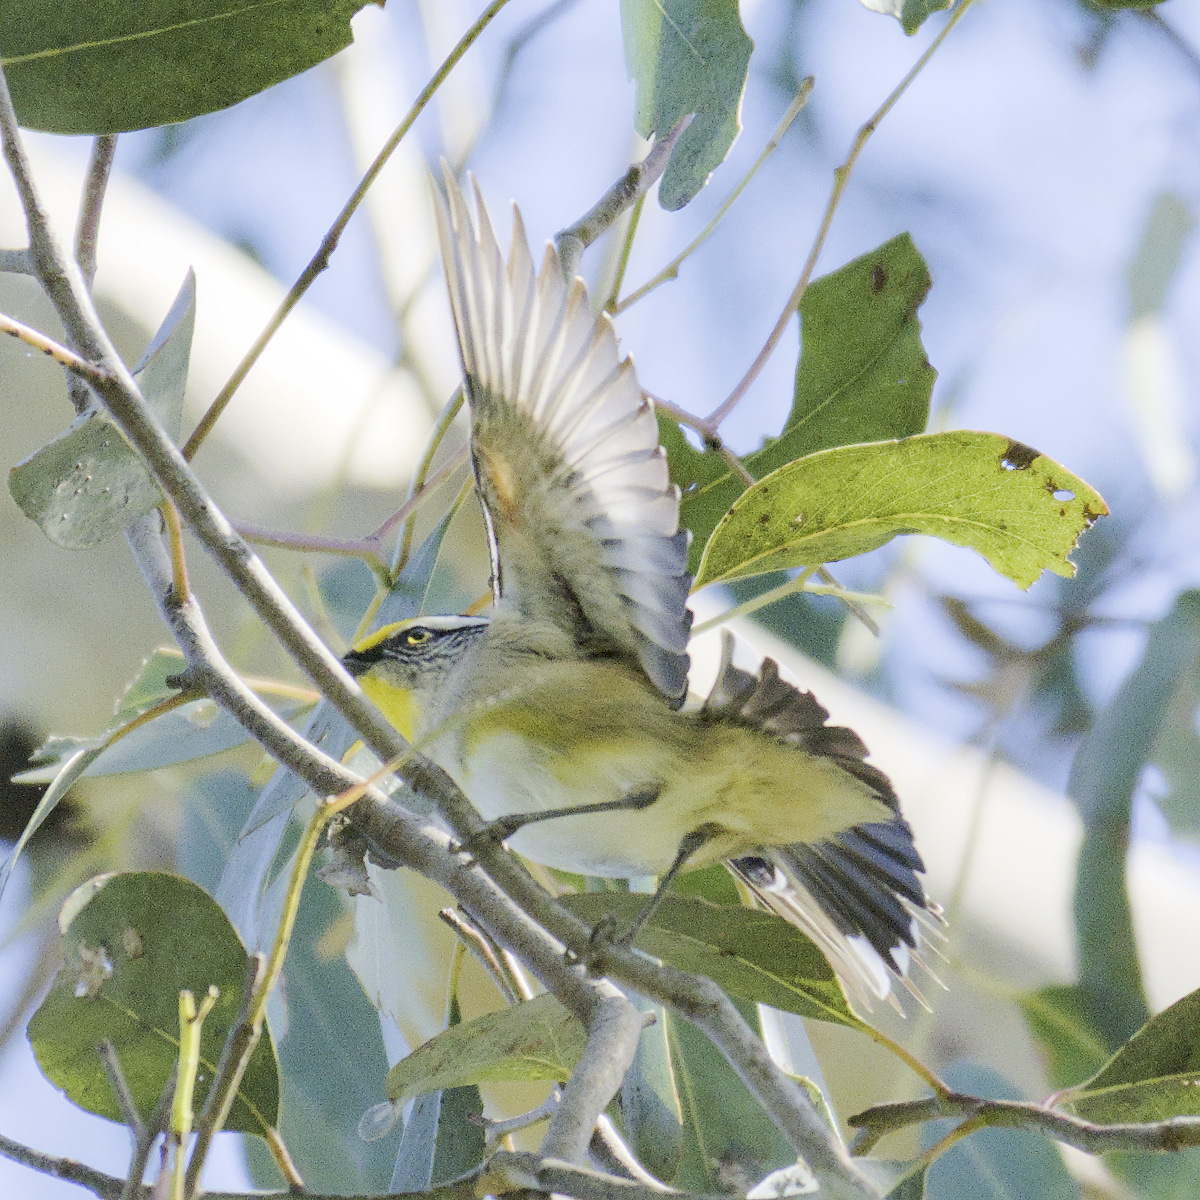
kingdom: Animalia
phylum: Chordata
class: Aves
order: Passeriformes
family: Pardalotidae
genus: Pardalotus
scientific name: Pardalotus striatus
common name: Striated pardalote
